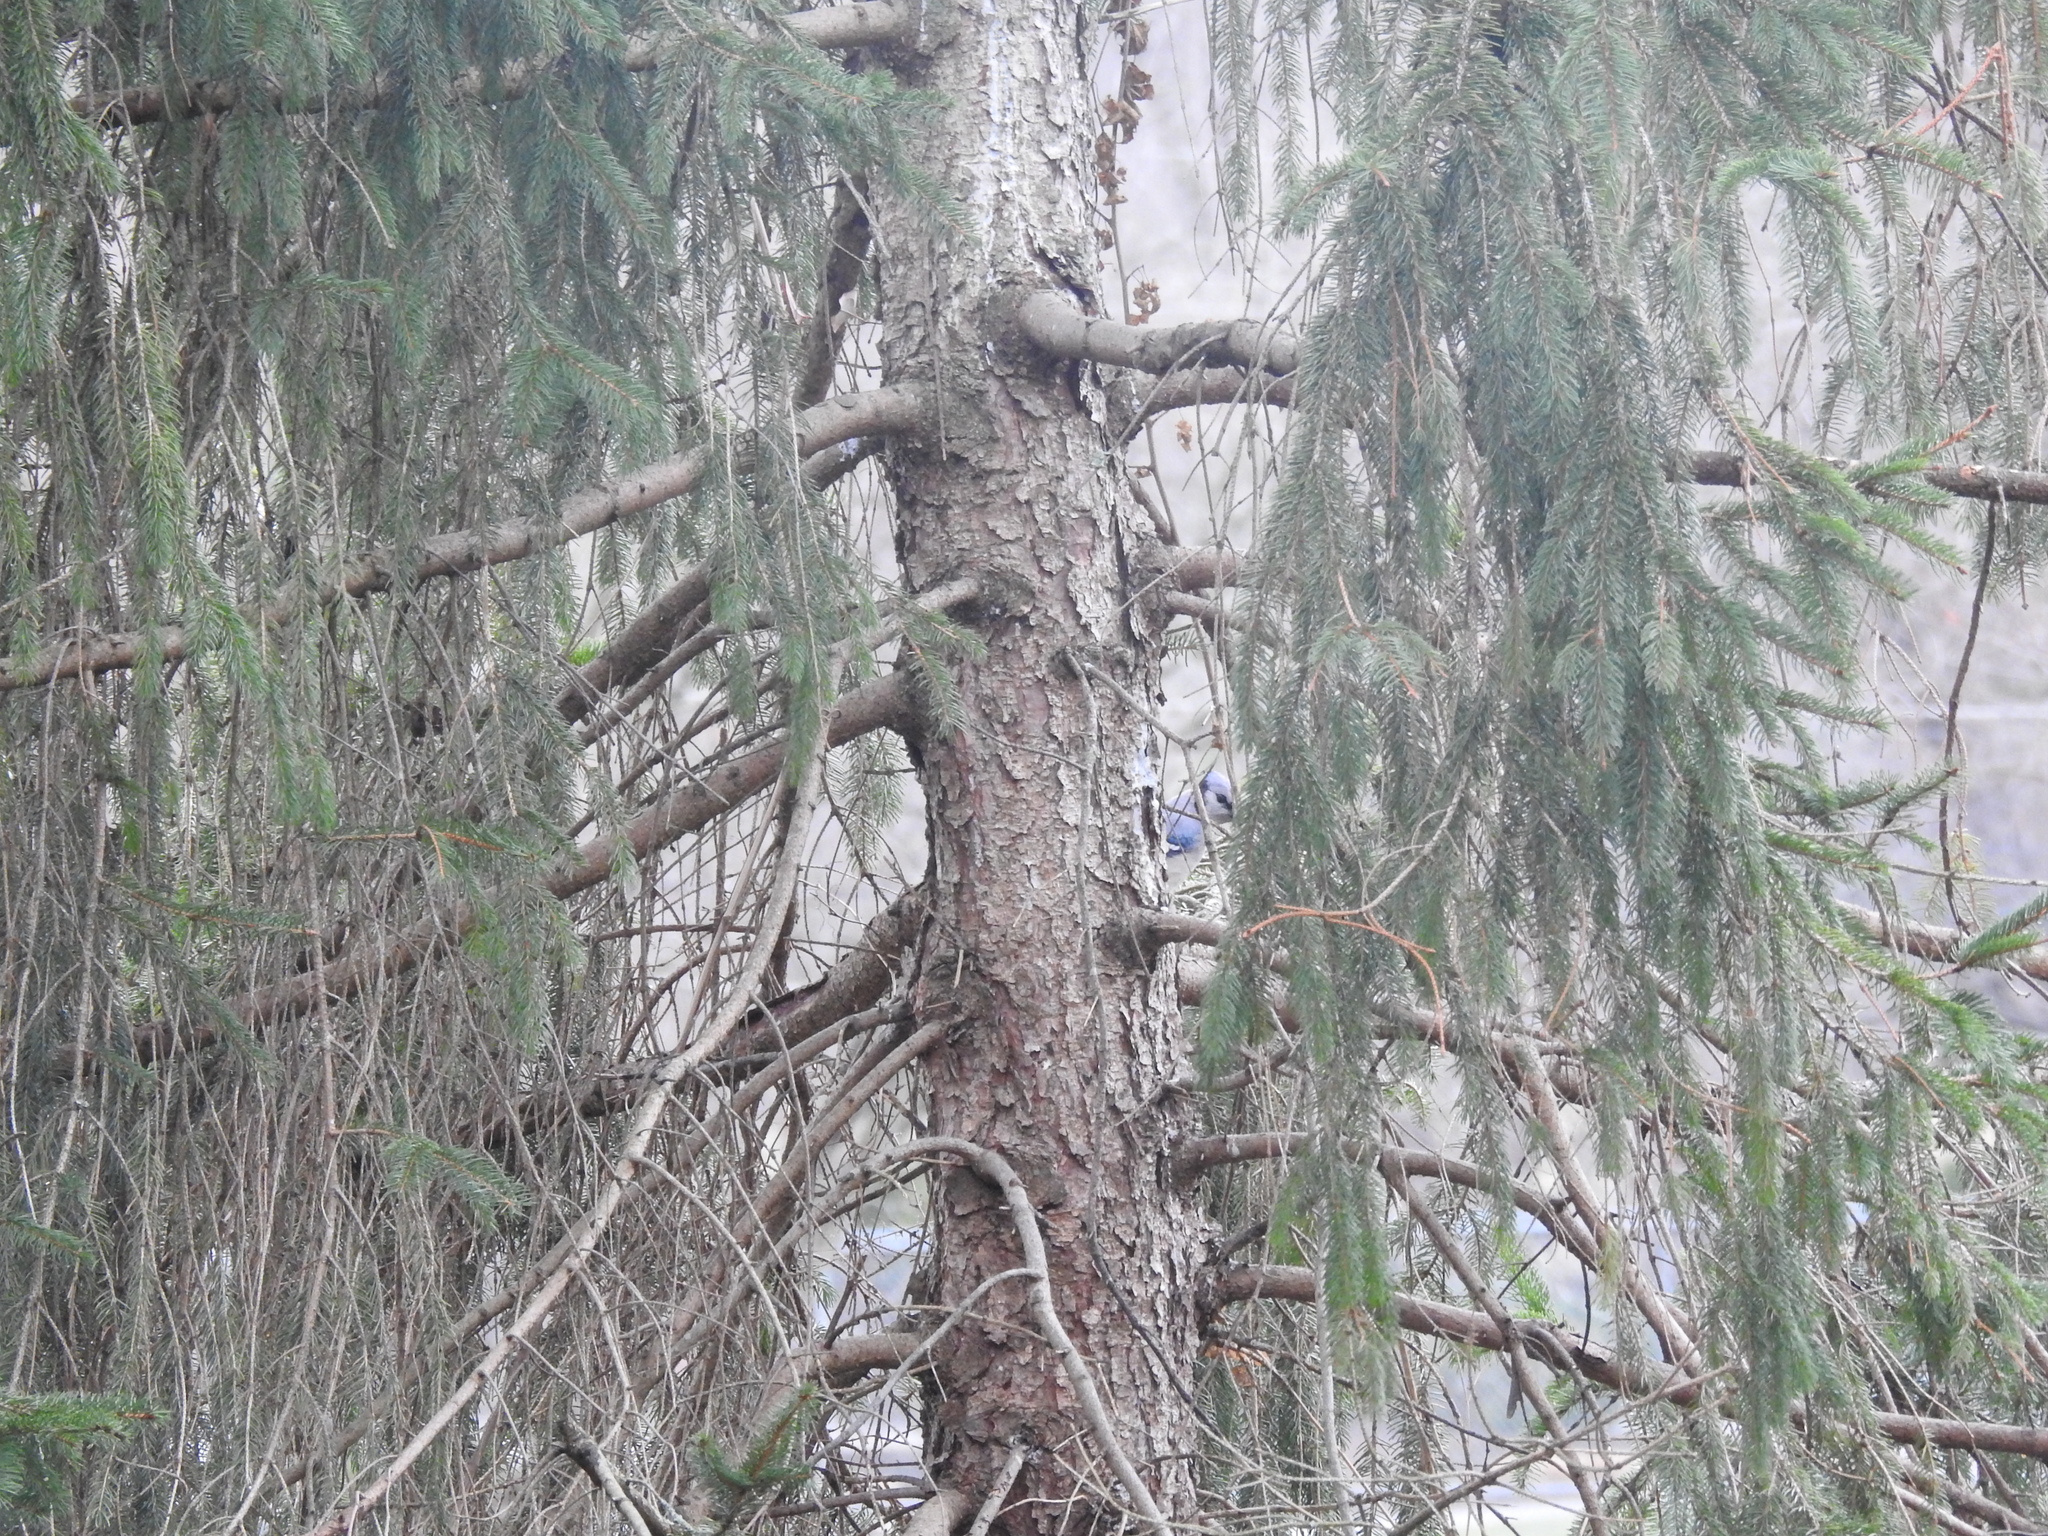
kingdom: Animalia
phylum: Chordata
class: Aves
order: Passeriformes
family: Corvidae
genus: Cyanocitta
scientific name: Cyanocitta cristata
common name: Blue jay
